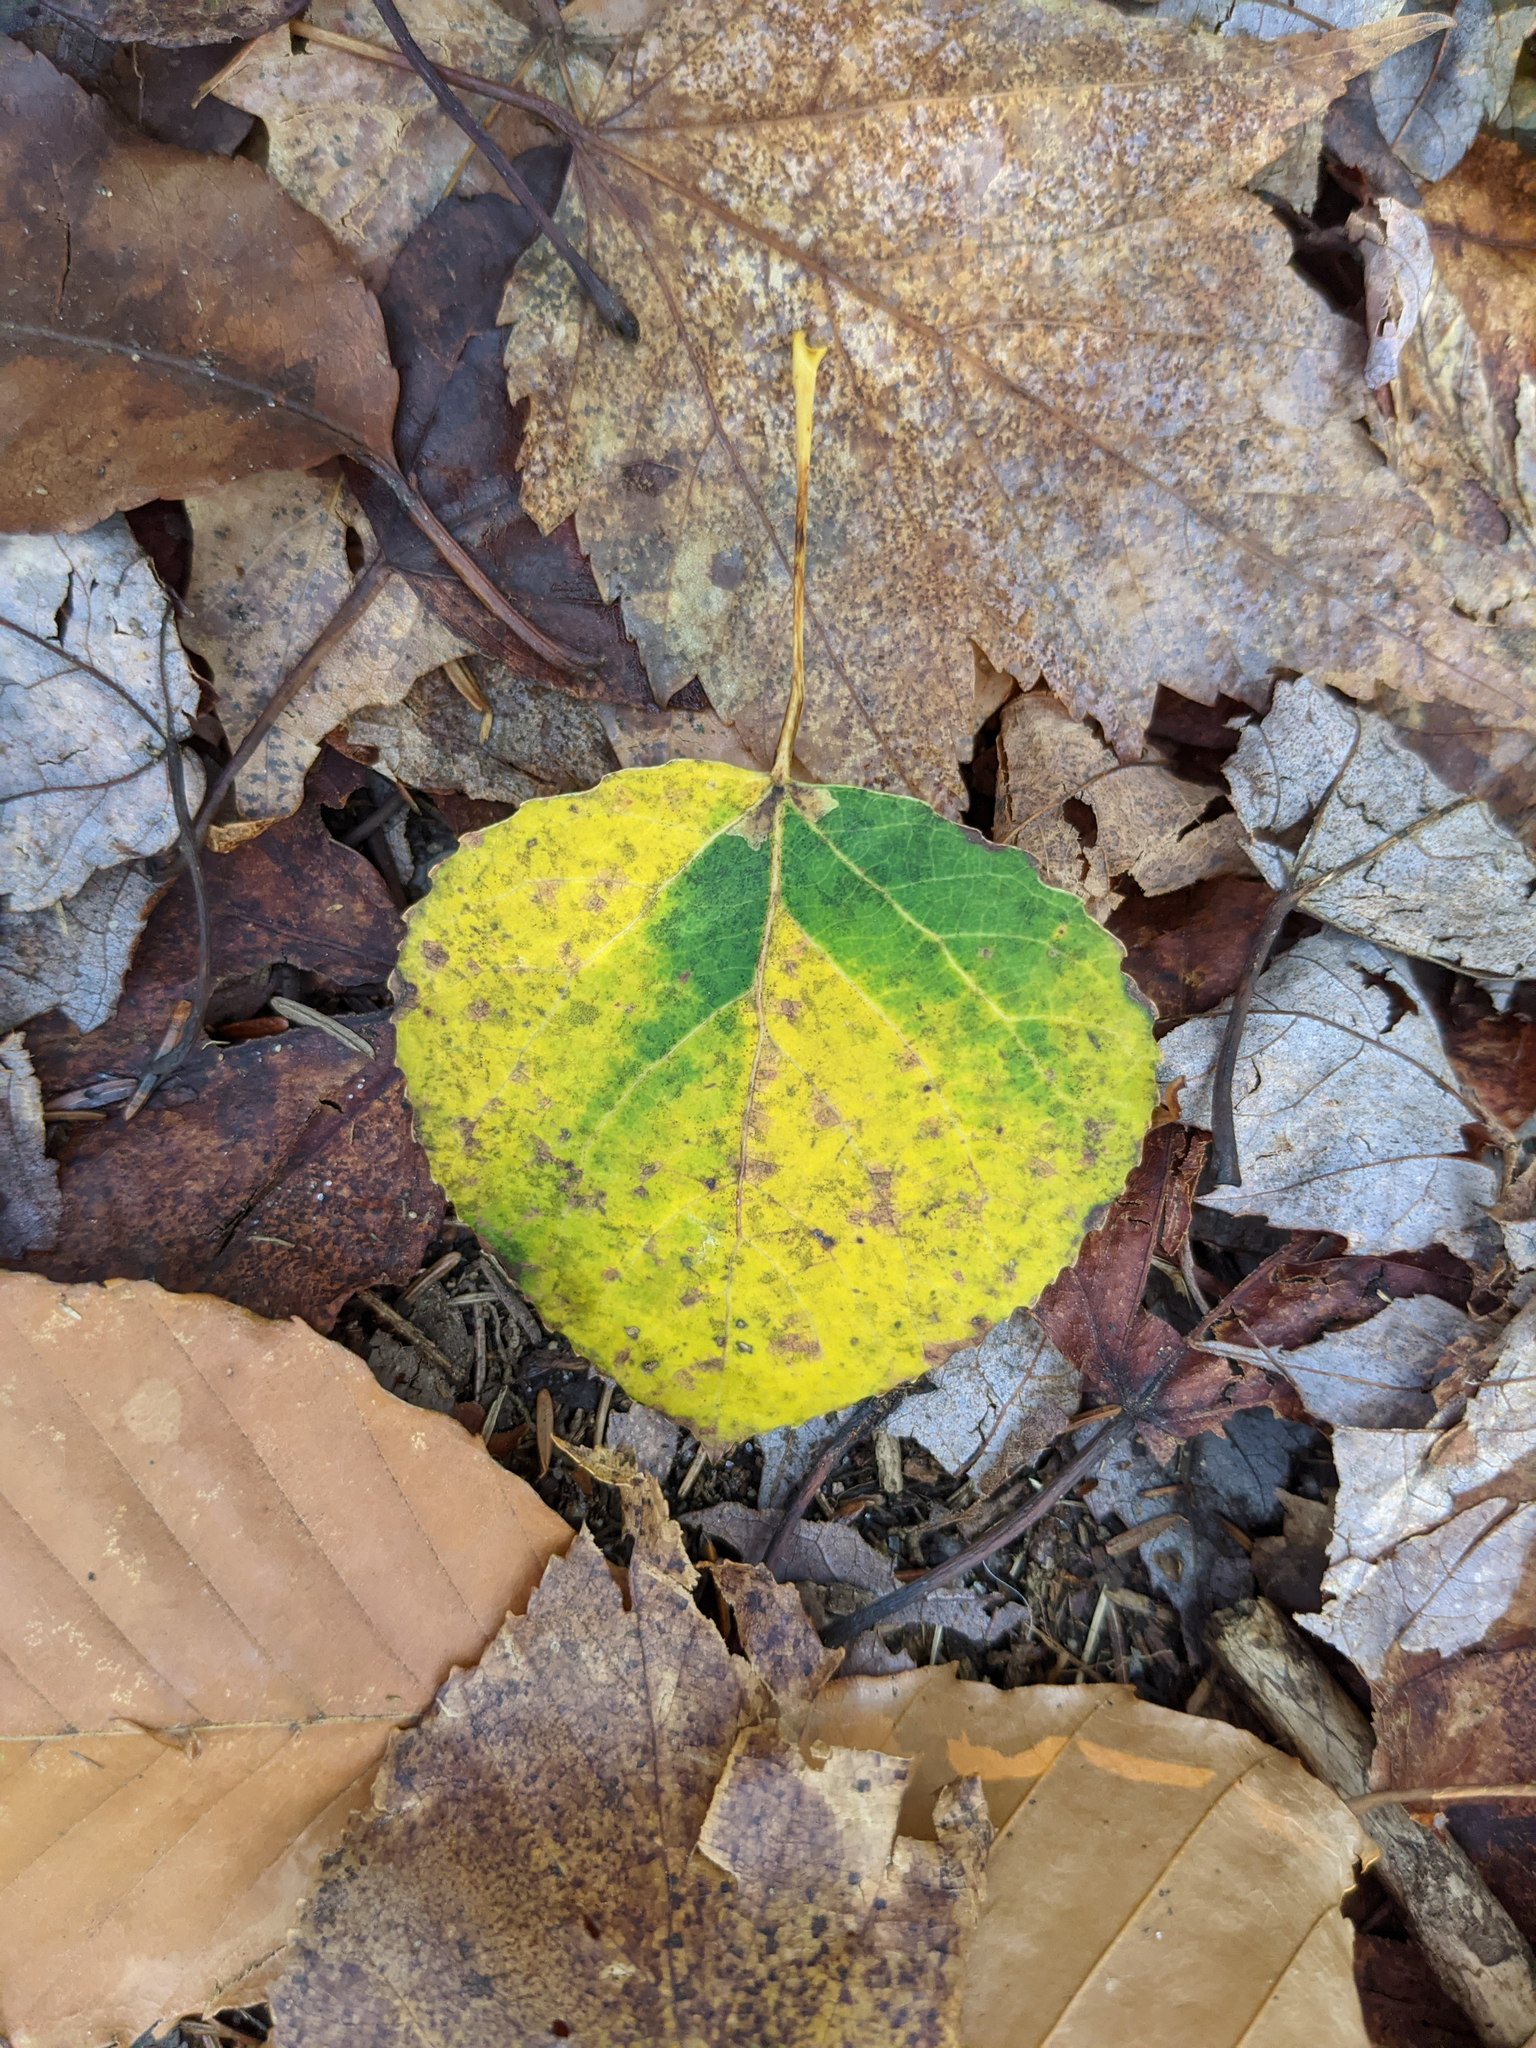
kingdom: Plantae
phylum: Tracheophyta
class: Magnoliopsida
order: Malpighiales
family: Salicaceae
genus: Populus
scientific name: Populus tremuloides
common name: Quaking aspen
